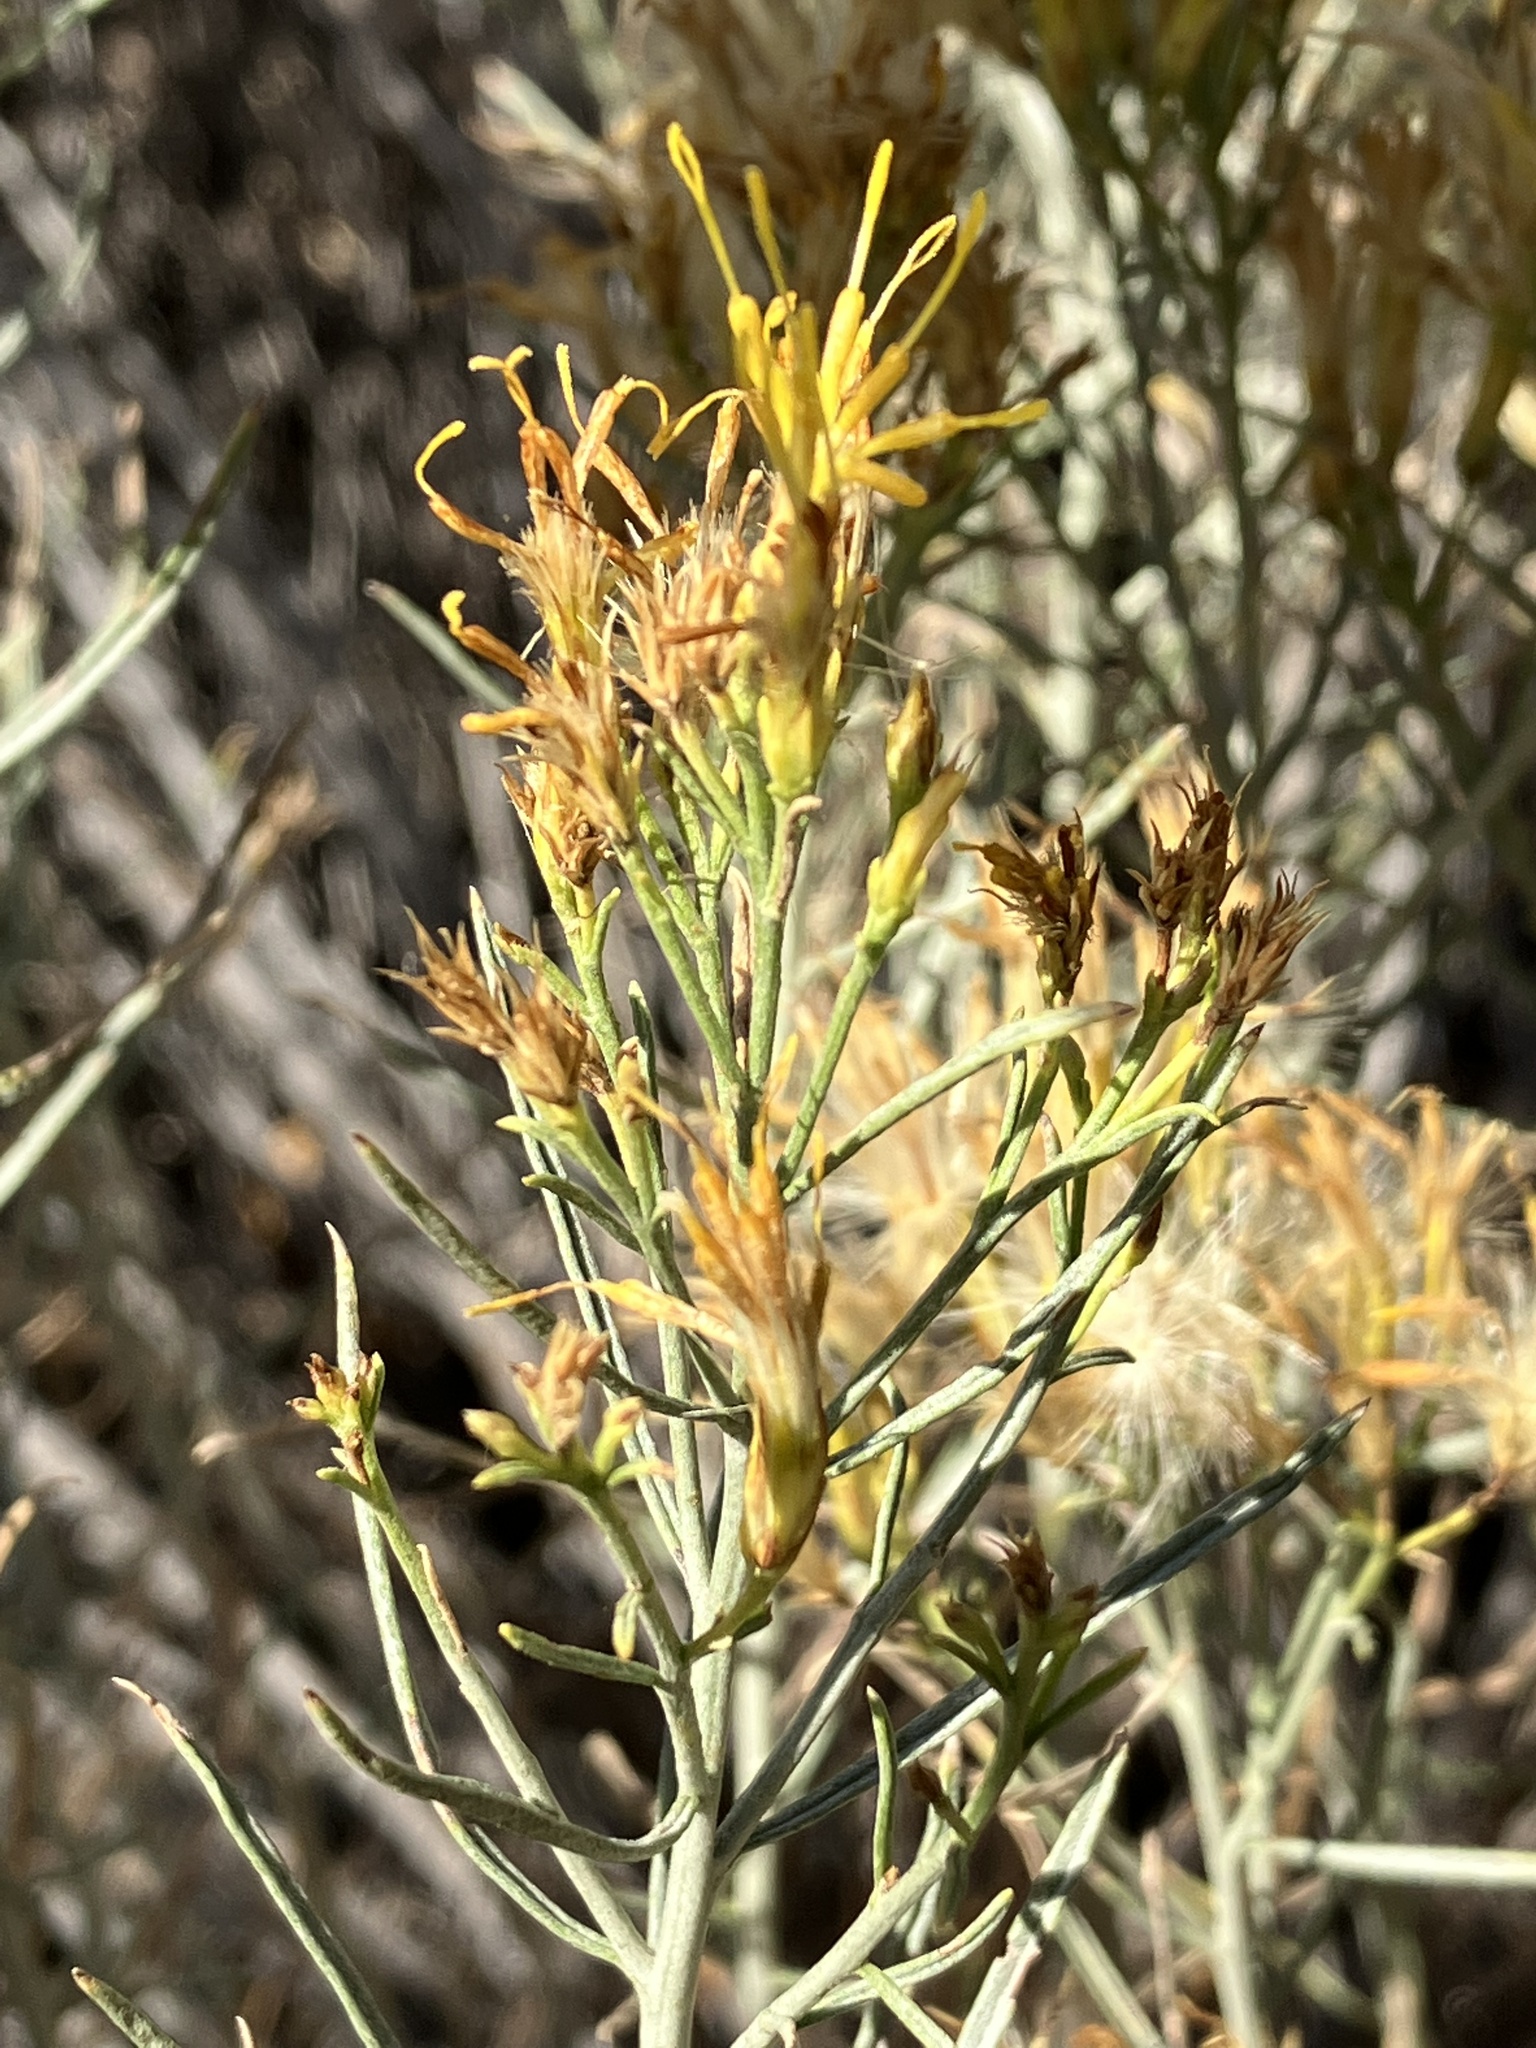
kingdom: Plantae
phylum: Tracheophyta
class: Magnoliopsida
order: Asterales
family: Asteraceae
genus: Ericameria
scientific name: Ericameria nauseosa
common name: Rubber rabbitbrush
